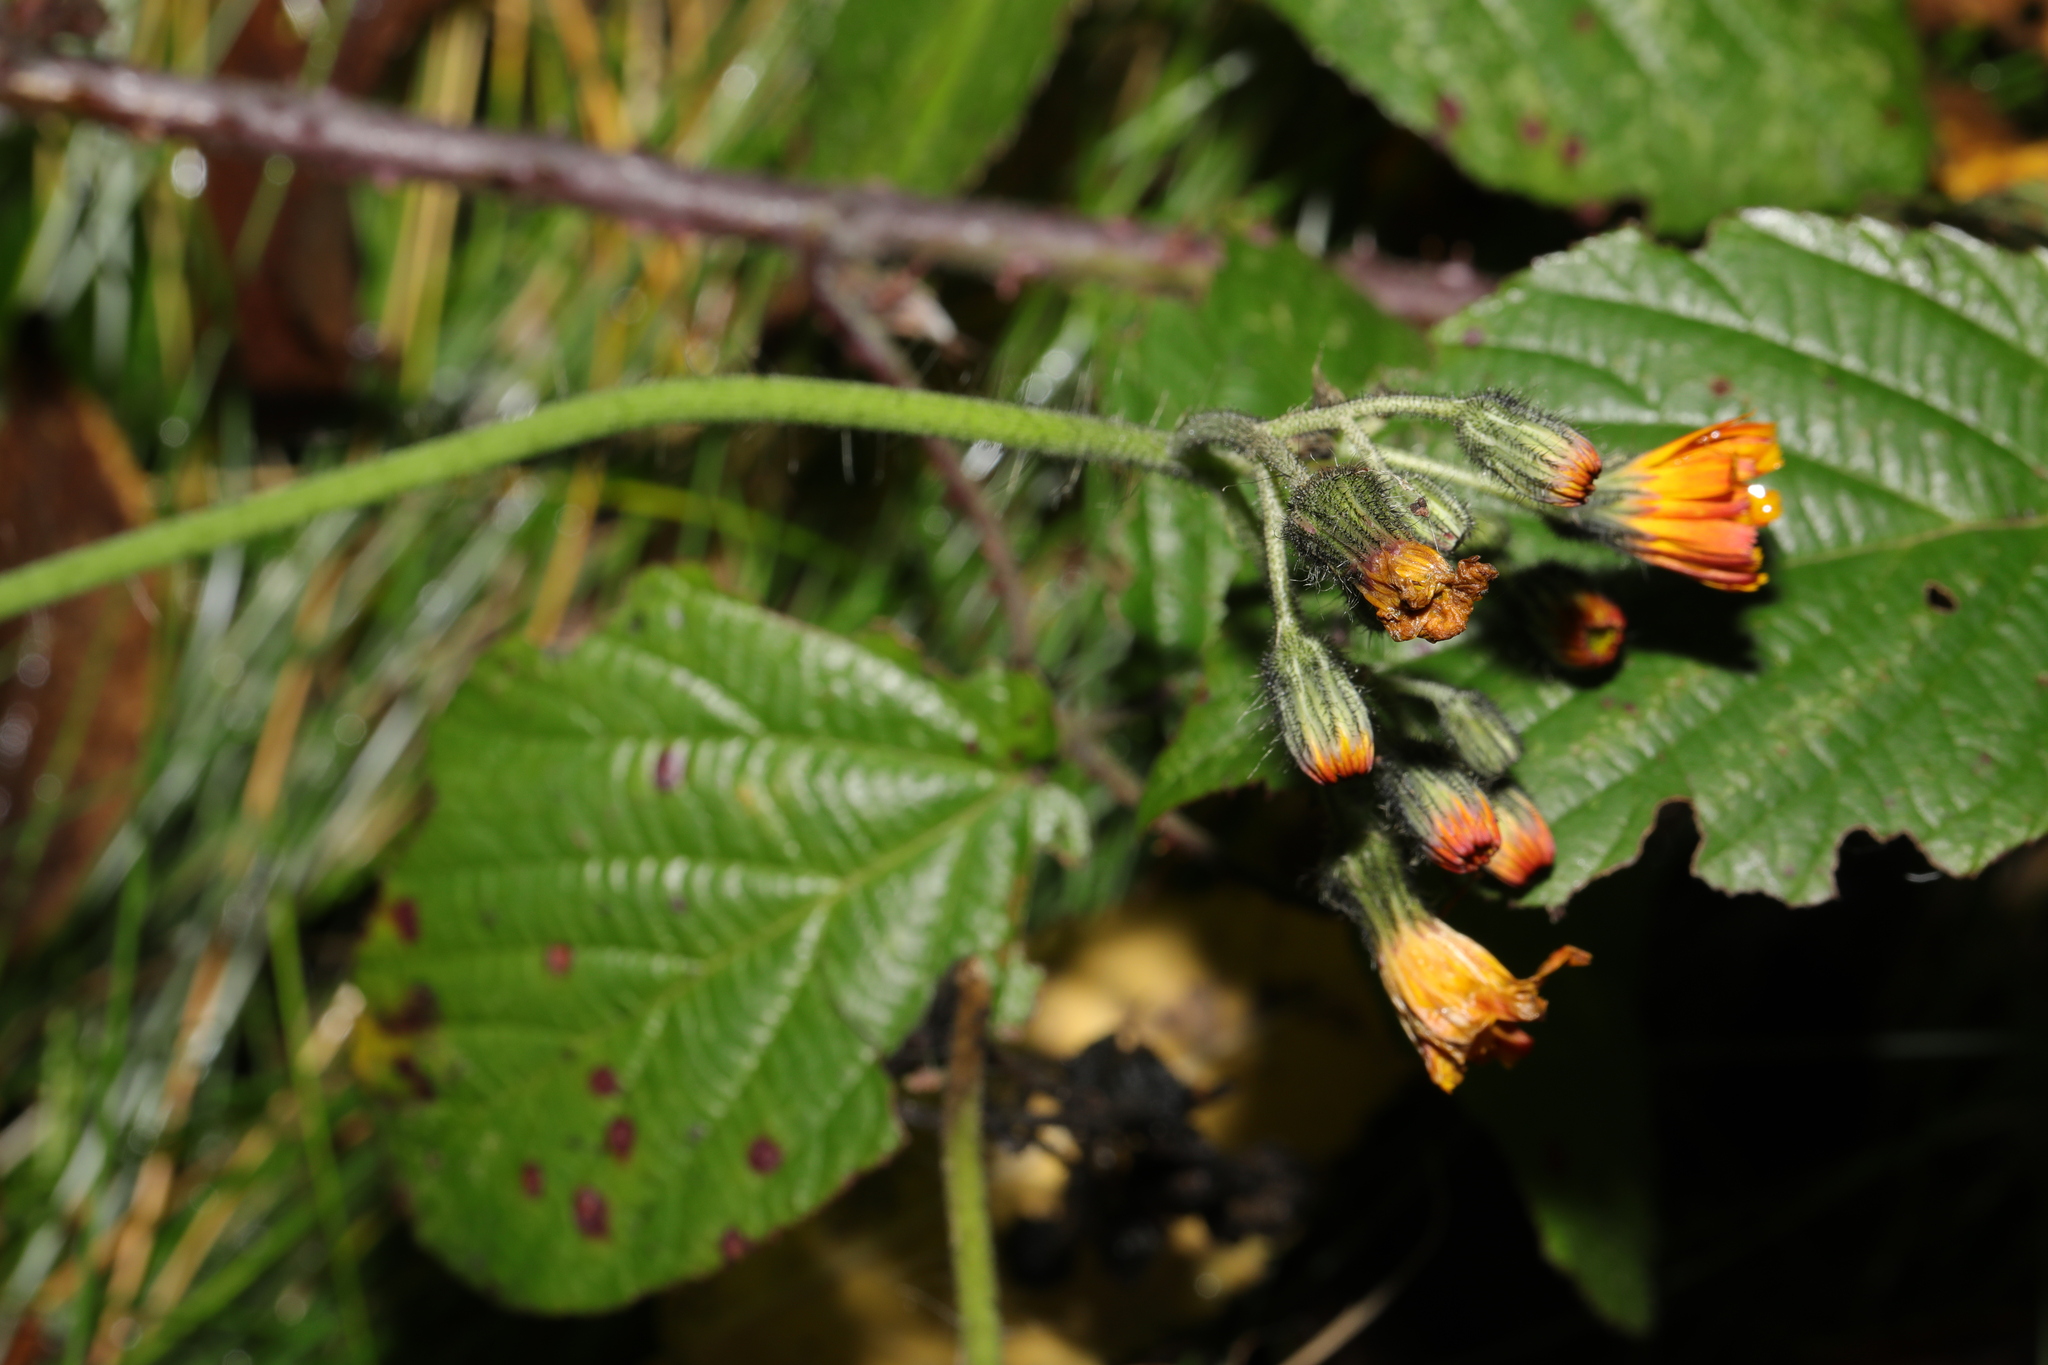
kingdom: Plantae
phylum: Tracheophyta
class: Magnoliopsida
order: Asterales
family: Asteraceae
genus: Pilosella
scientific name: Pilosella aurantiaca
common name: Fox-and-cubs
